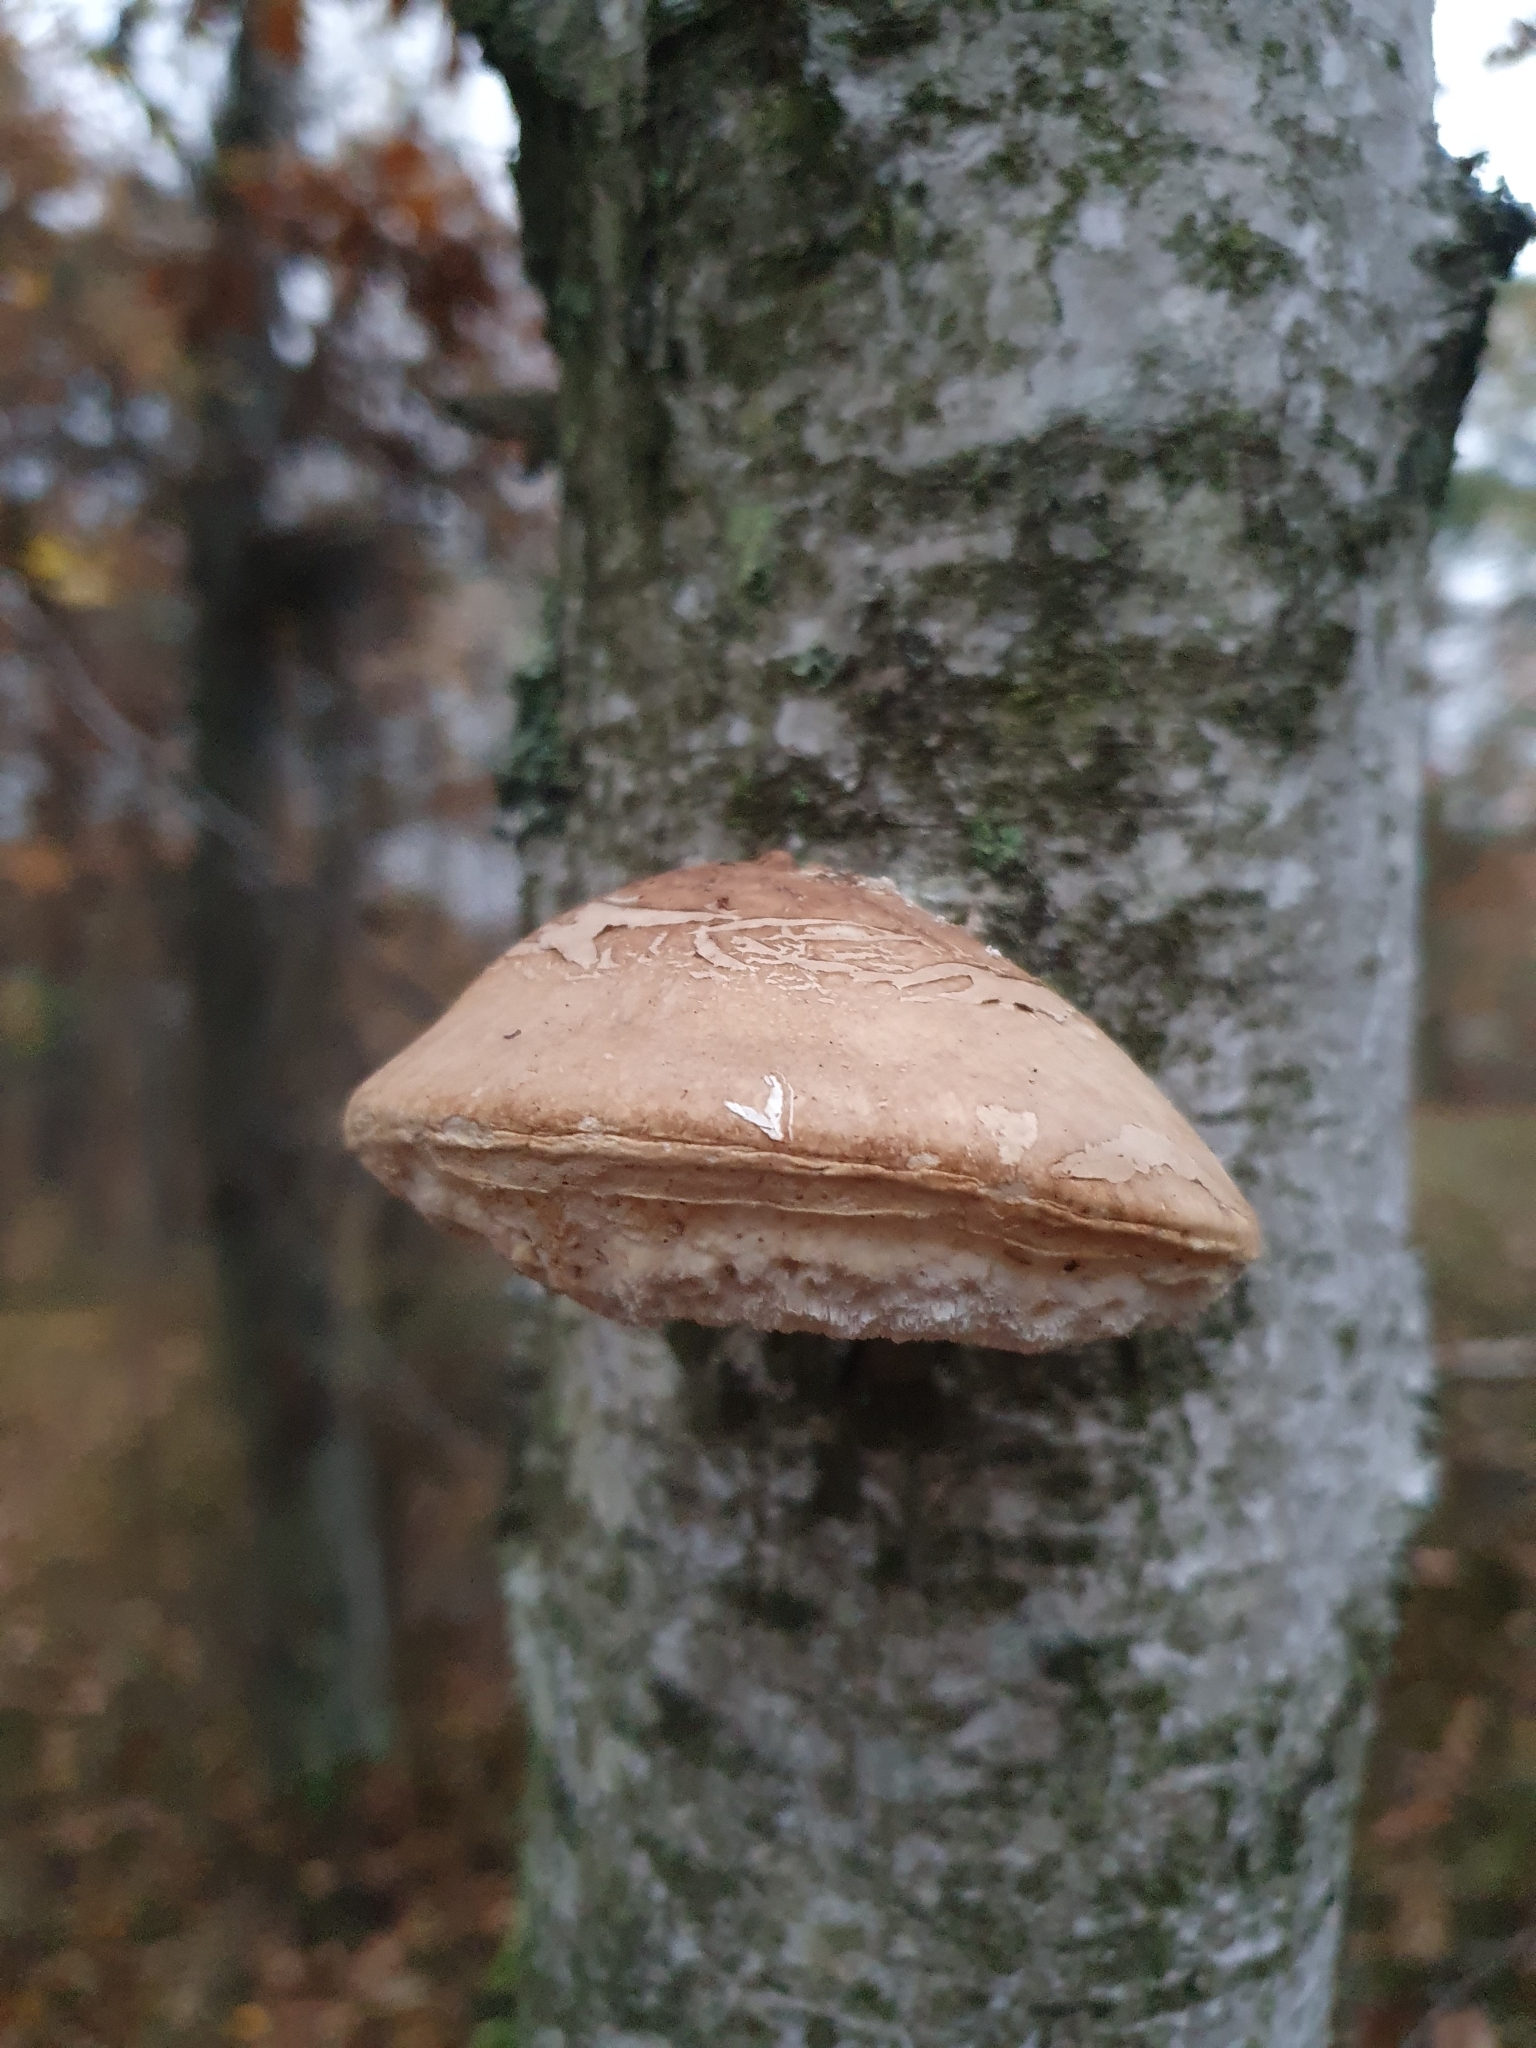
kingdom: Fungi
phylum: Basidiomycota
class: Agaricomycetes
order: Polyporales
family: Fomitopsidaceae
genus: Fomitopsis
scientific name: Fomitopsis betulina
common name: Birch polypore
